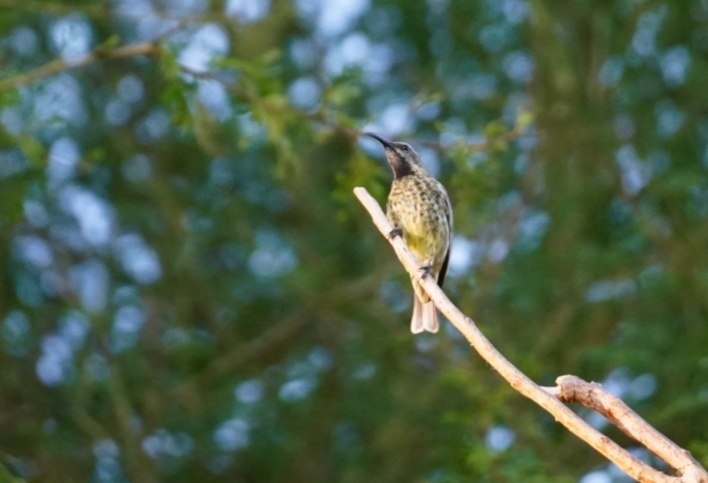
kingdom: Animalia
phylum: Chordata
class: Aves
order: Passeriformes
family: Nectariniidae
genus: Chalcomitra
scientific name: Chalcomitra amethystina
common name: Amethyst sunbird
